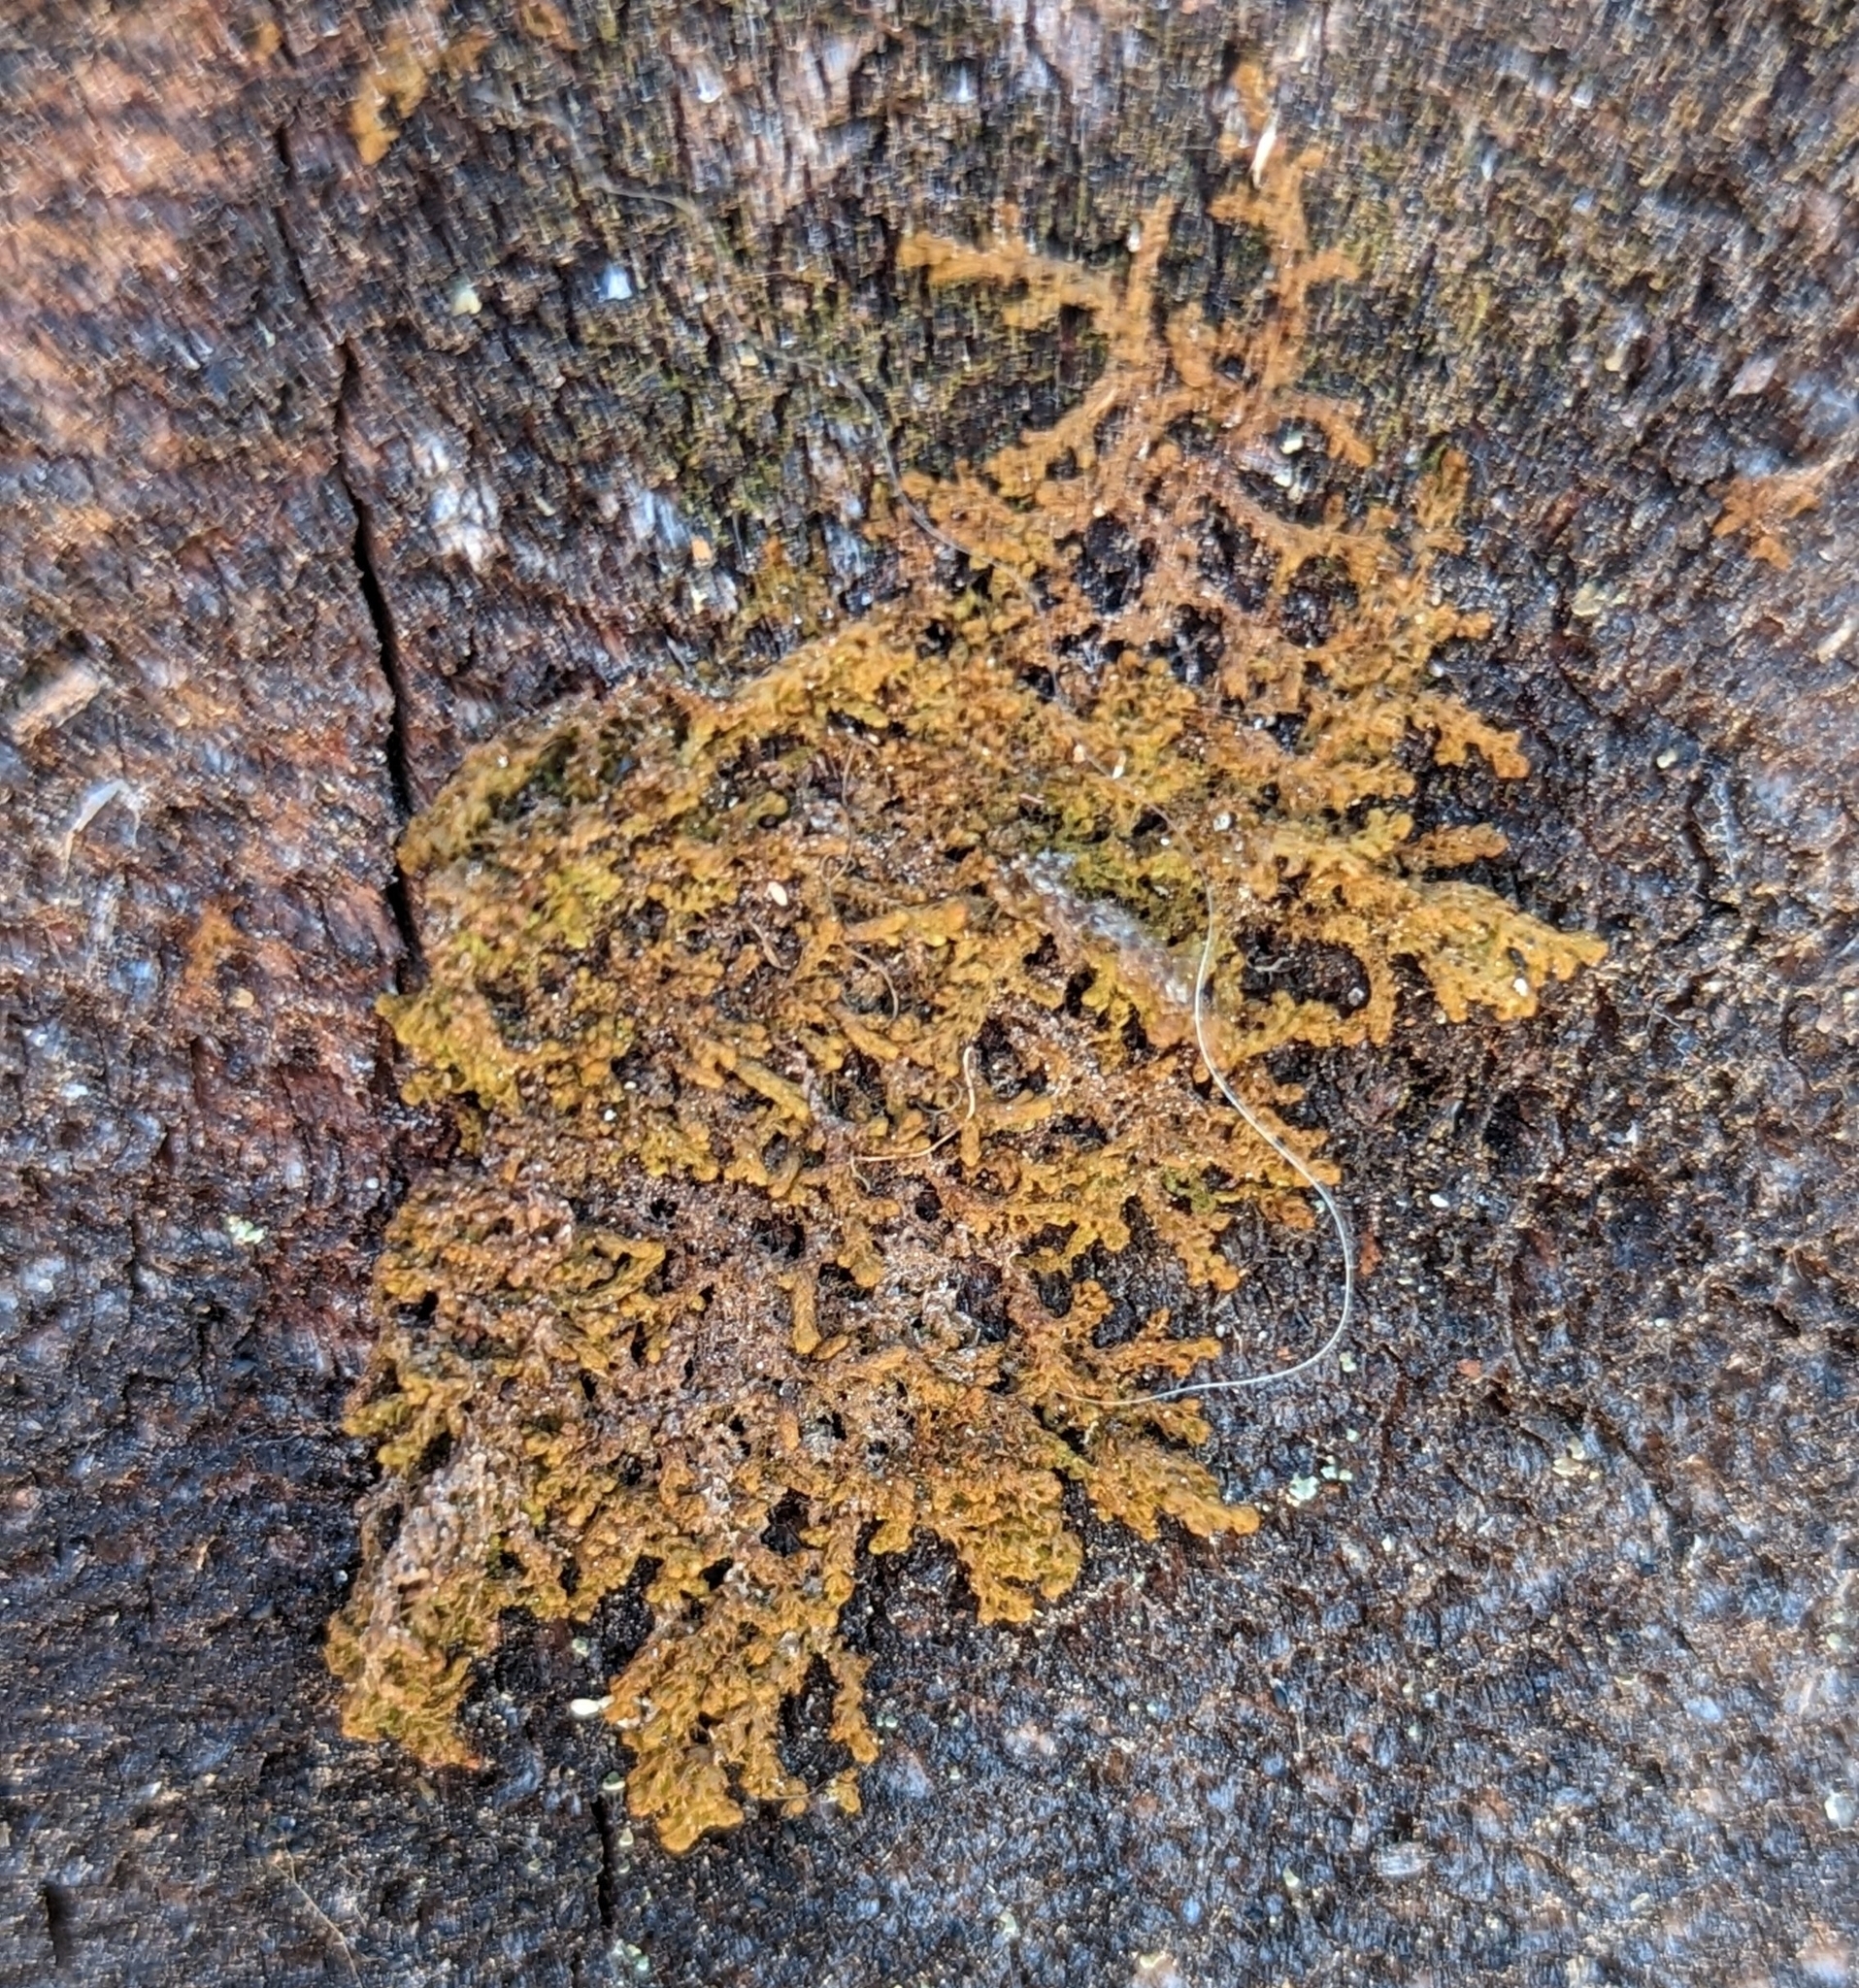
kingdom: Plantae
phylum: Marchantiophyta
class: Jungermanniopsida
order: Ptilidiales
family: Ptilidiaceae
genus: Ptilidium
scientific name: Ptilidium pulcherrimum
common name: Tree fringewort
